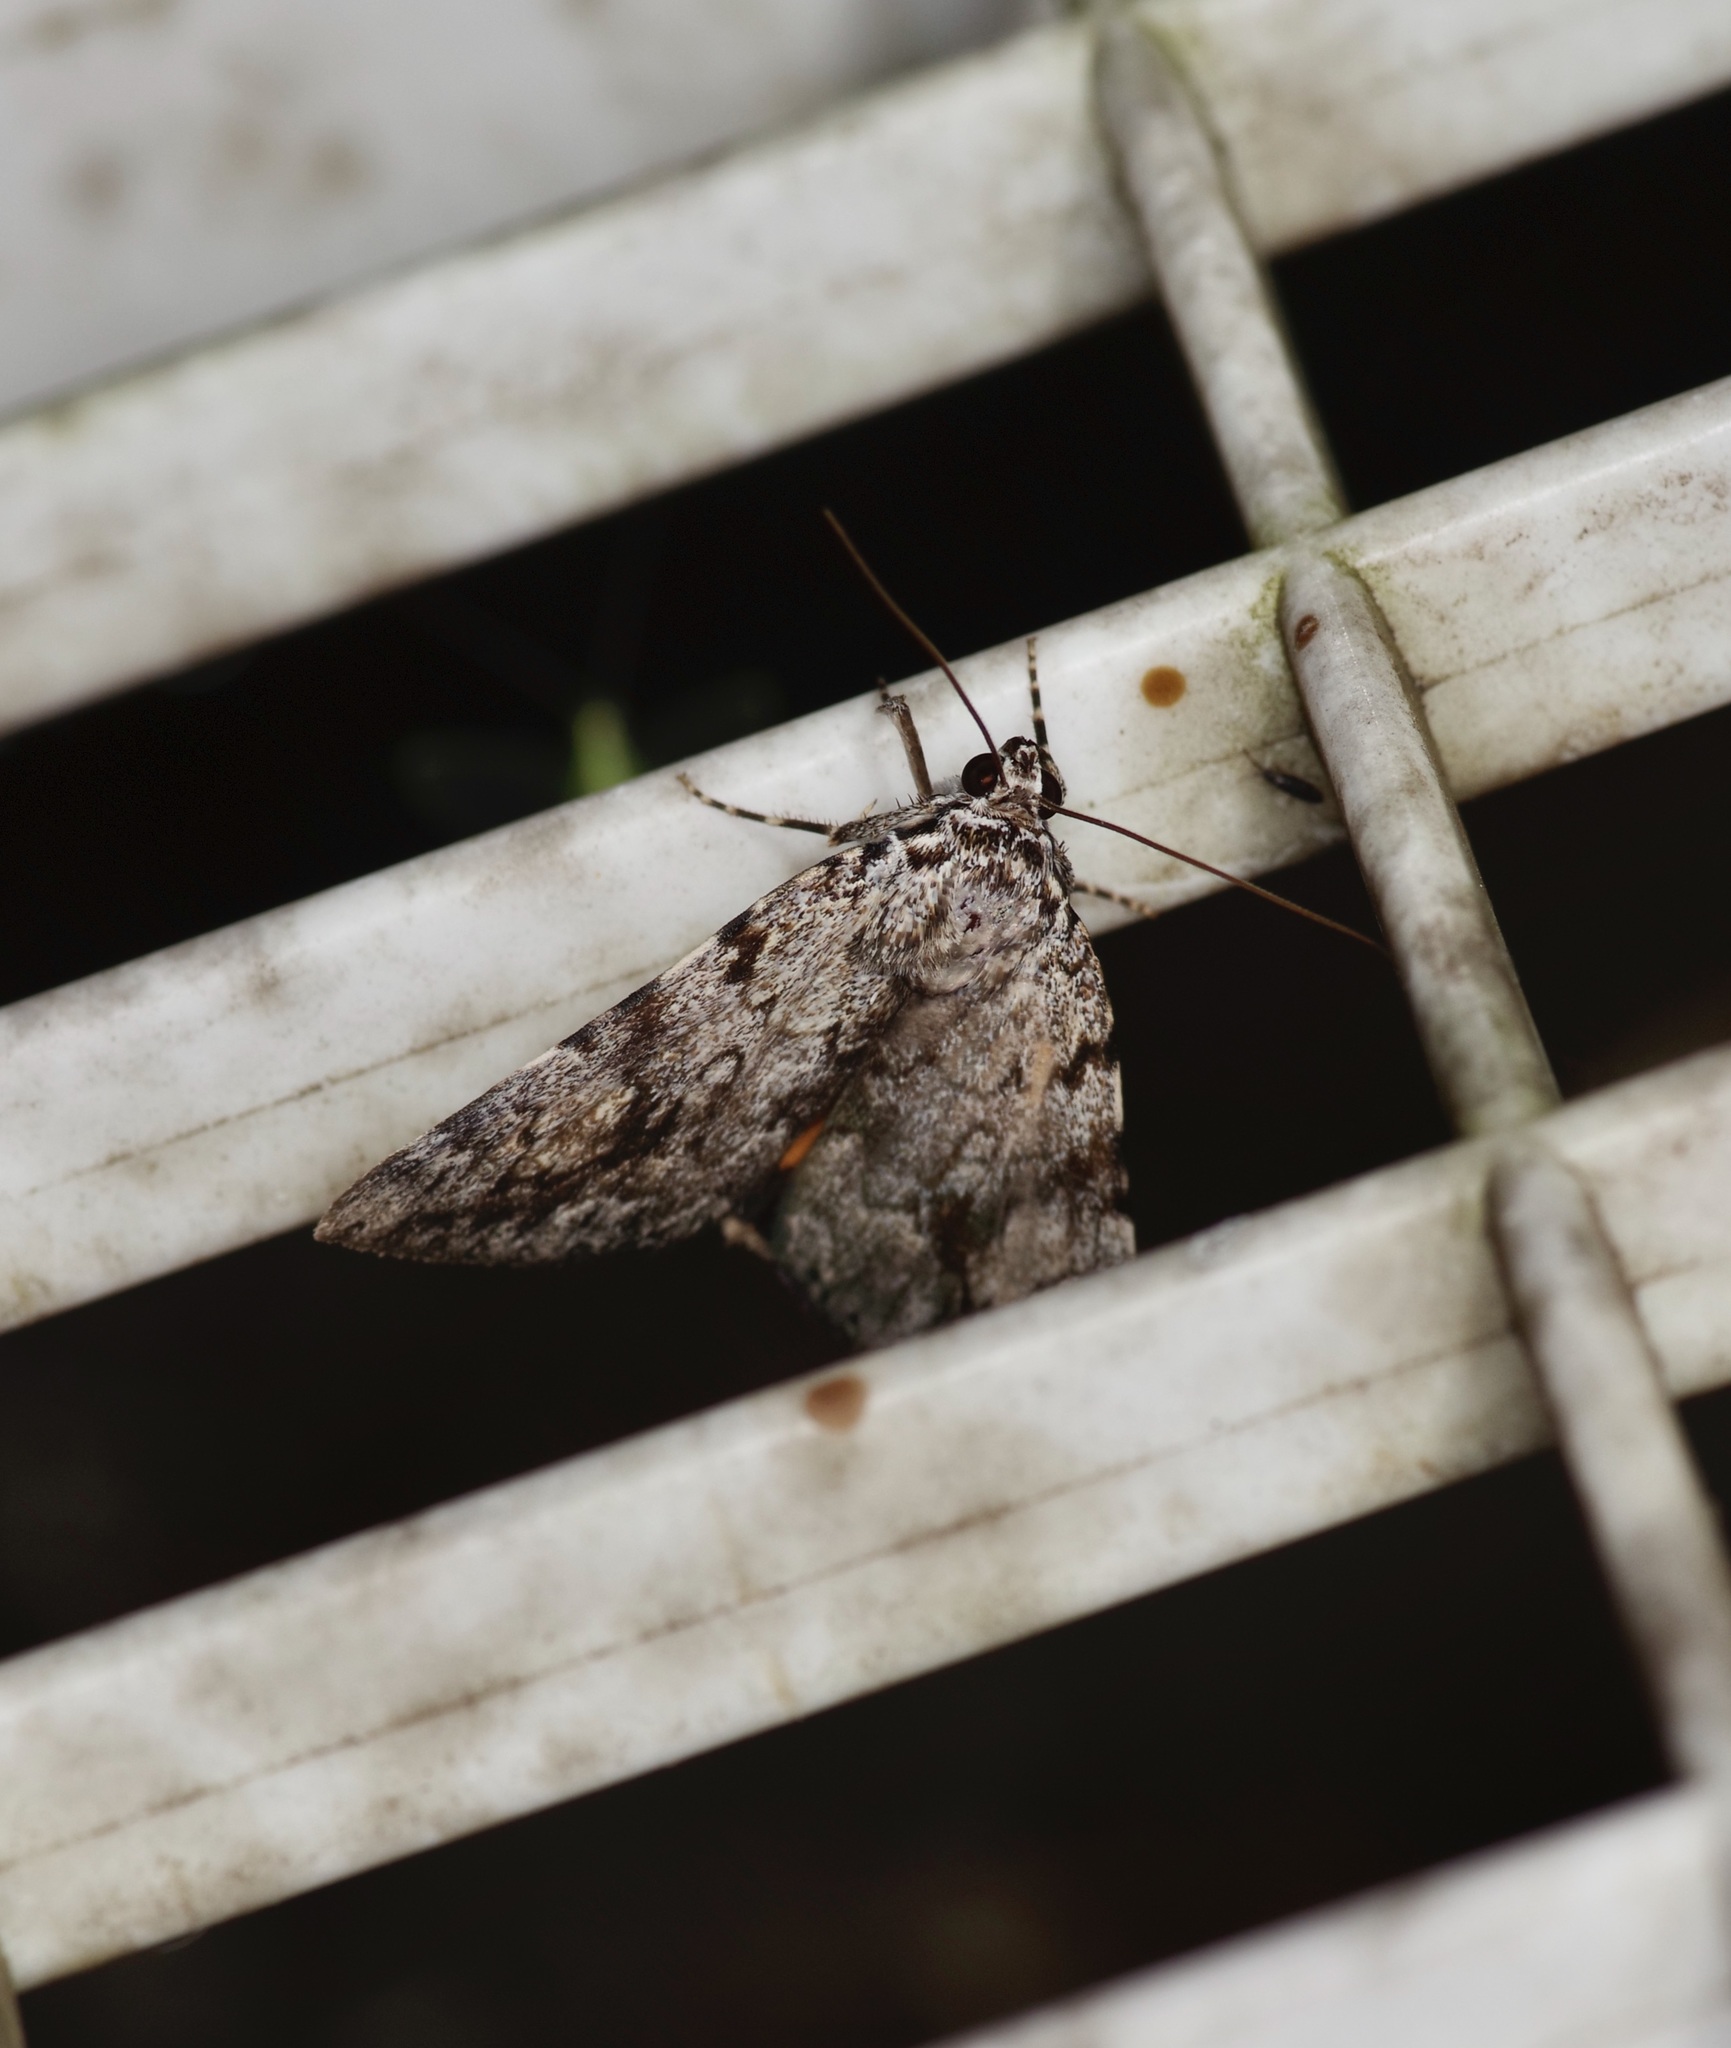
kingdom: Animalia
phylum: Arthropoda
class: Insecta
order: Lepidoptera
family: Erebidae
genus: Catocala
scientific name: Catocala amica
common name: Girlfriend underwing
